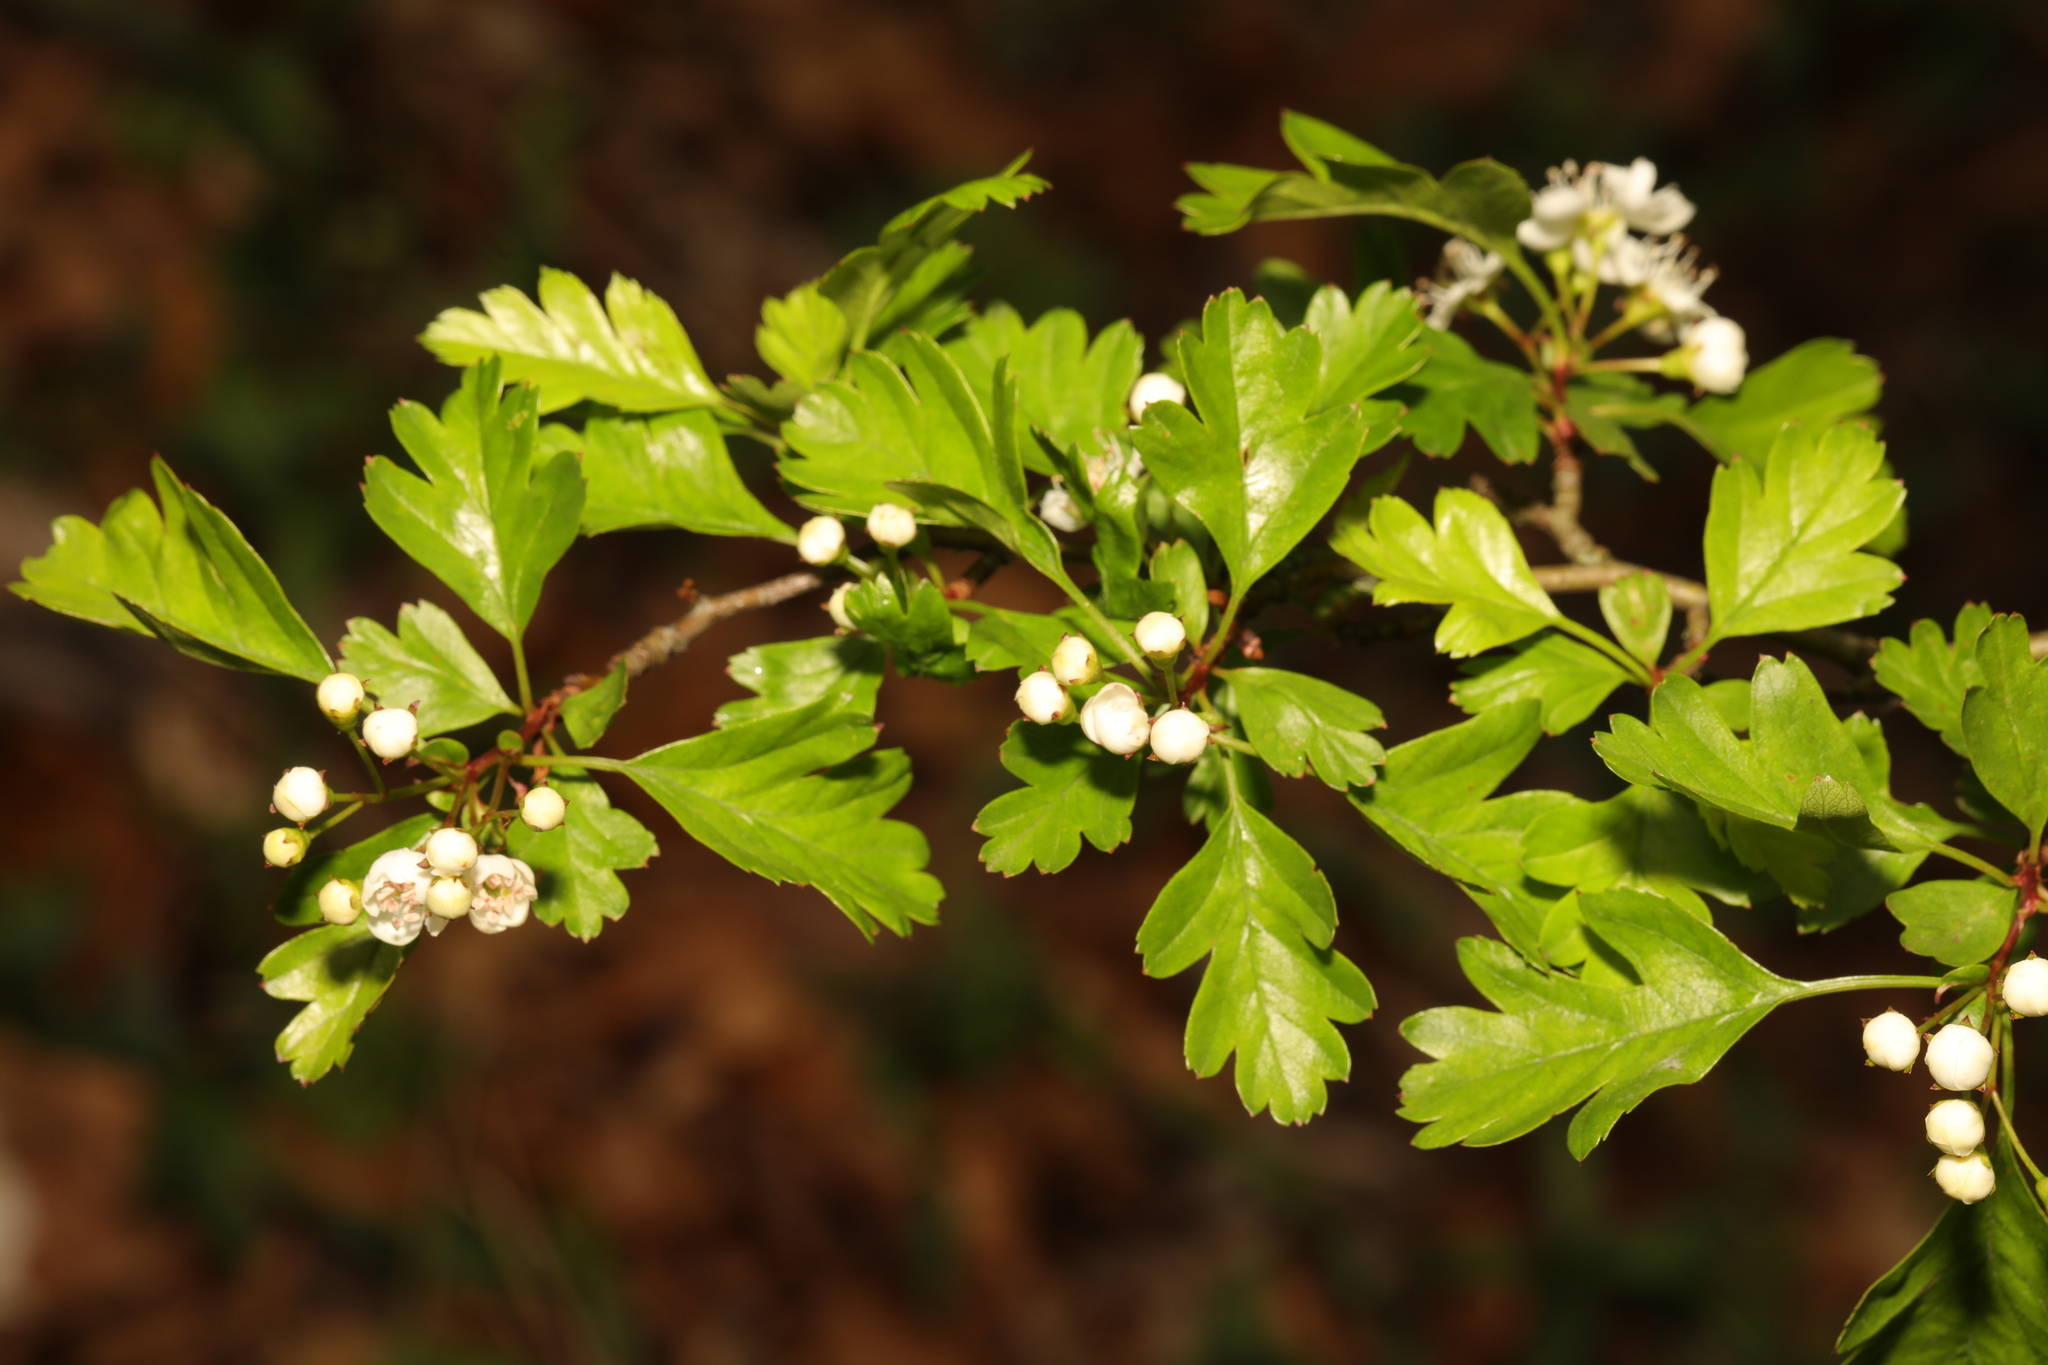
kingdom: Plantae
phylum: Tracheophyta
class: Magnoliopsida
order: Rosales
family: Rosaceae
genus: Crataegus
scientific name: Crataegus monogyna
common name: Hawthorn
